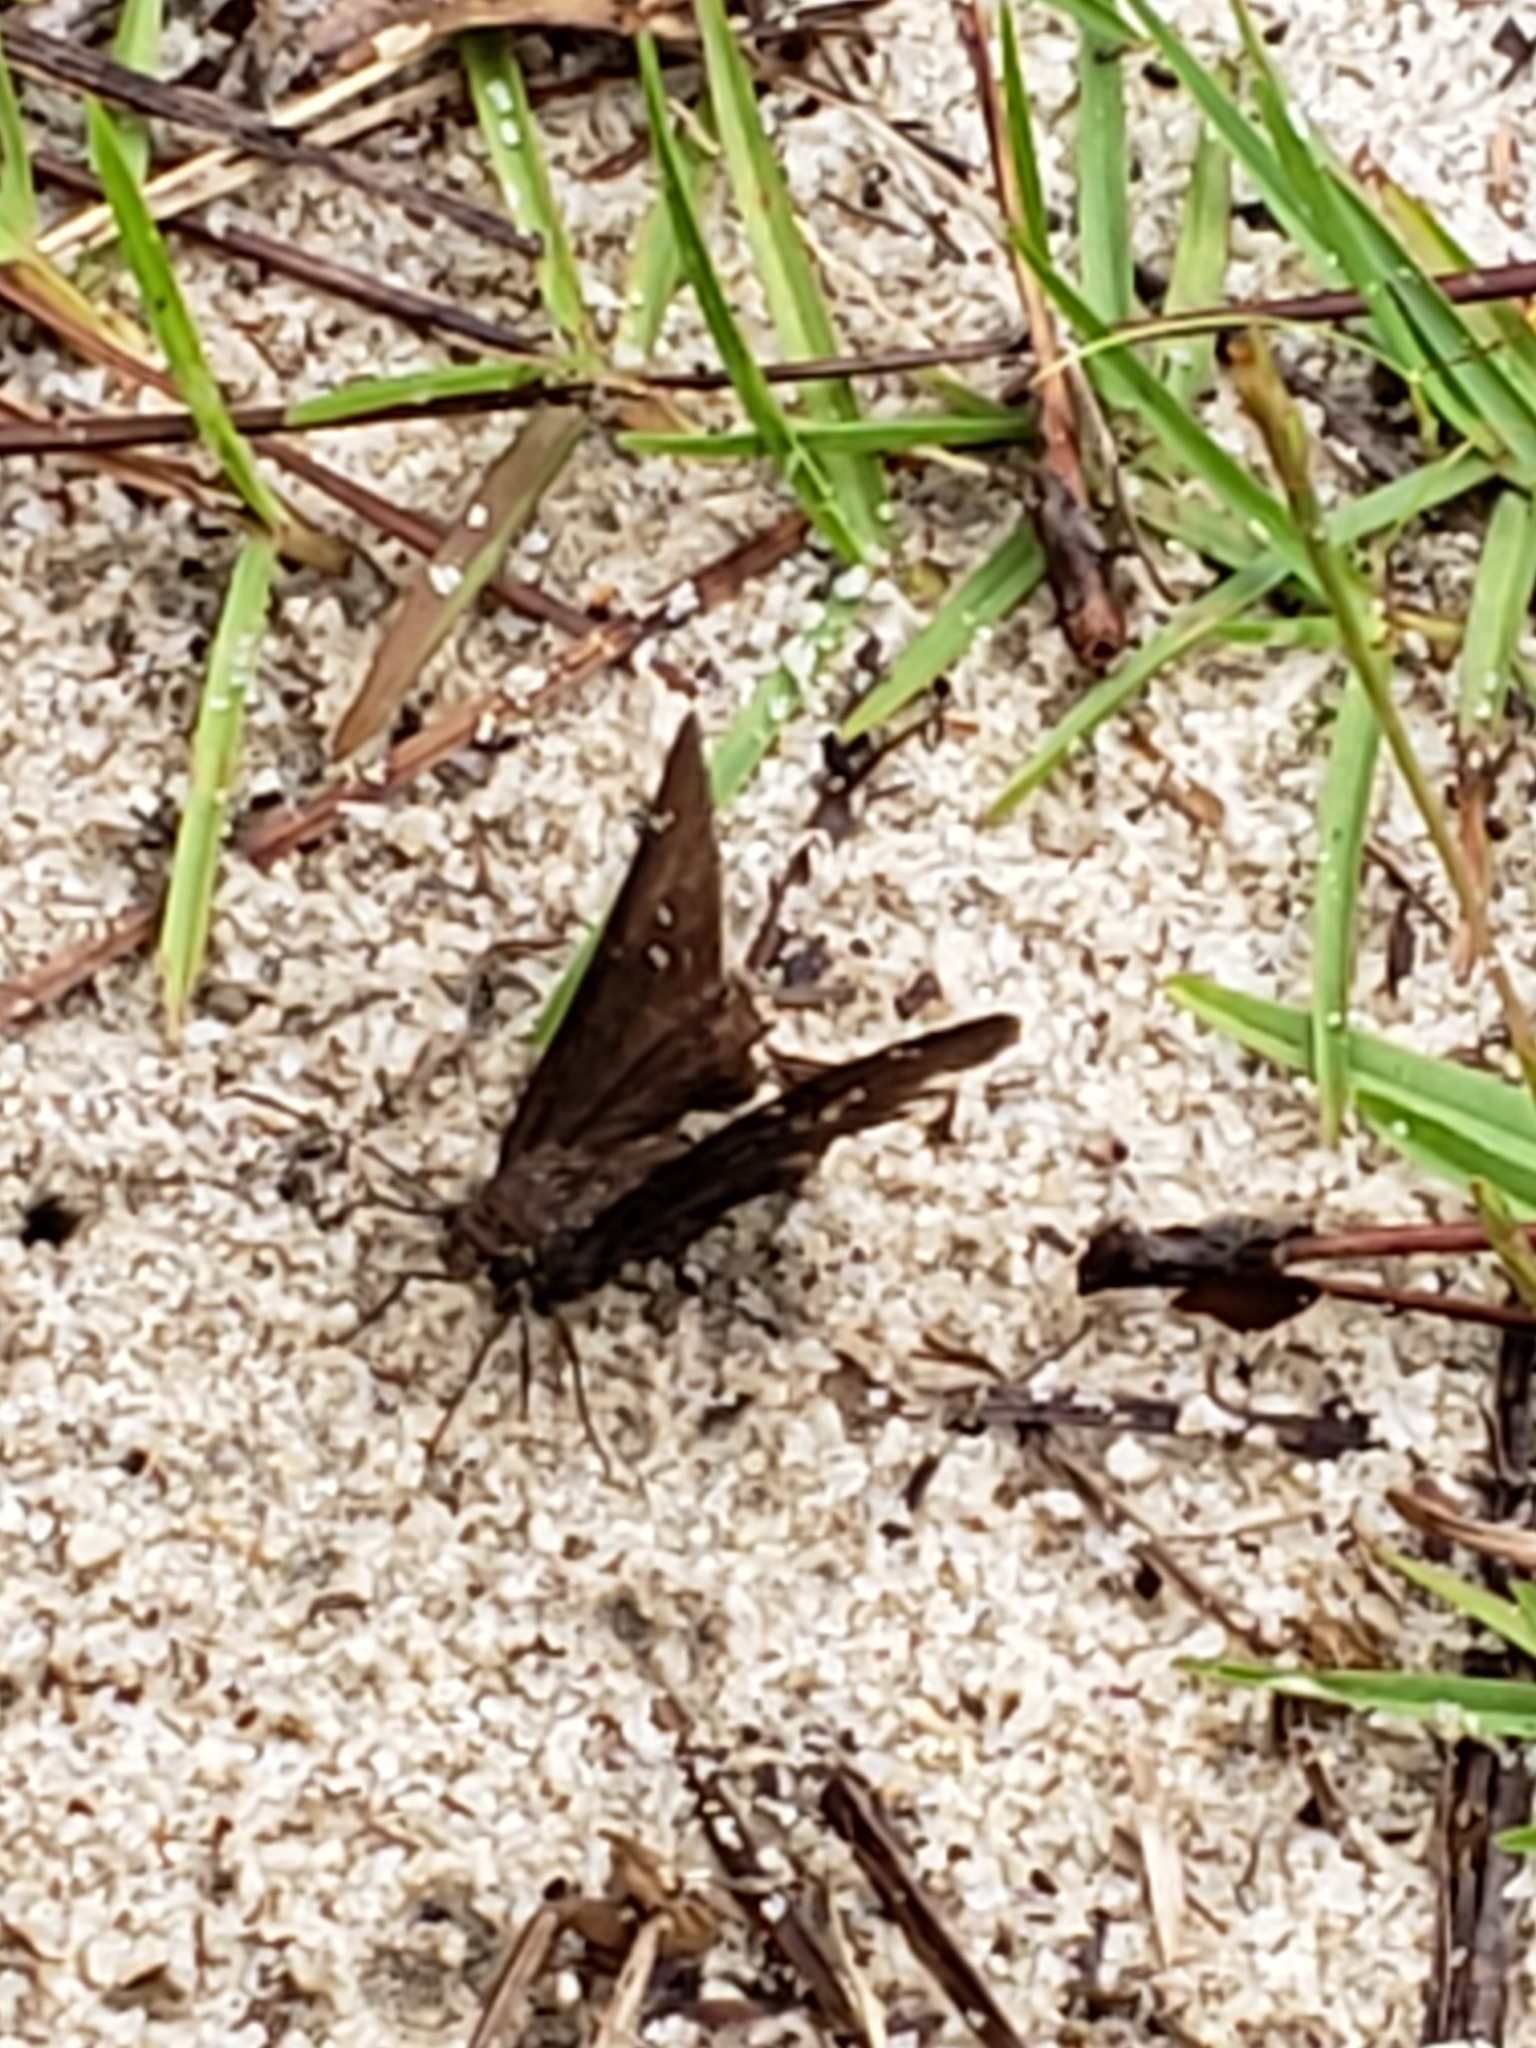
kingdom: Animalia
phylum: Arthropoda
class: Insecta
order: Lepidoptera
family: Hesperiidae
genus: Thorybes
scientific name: Thorybes pylades
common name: Northern cloudywing
